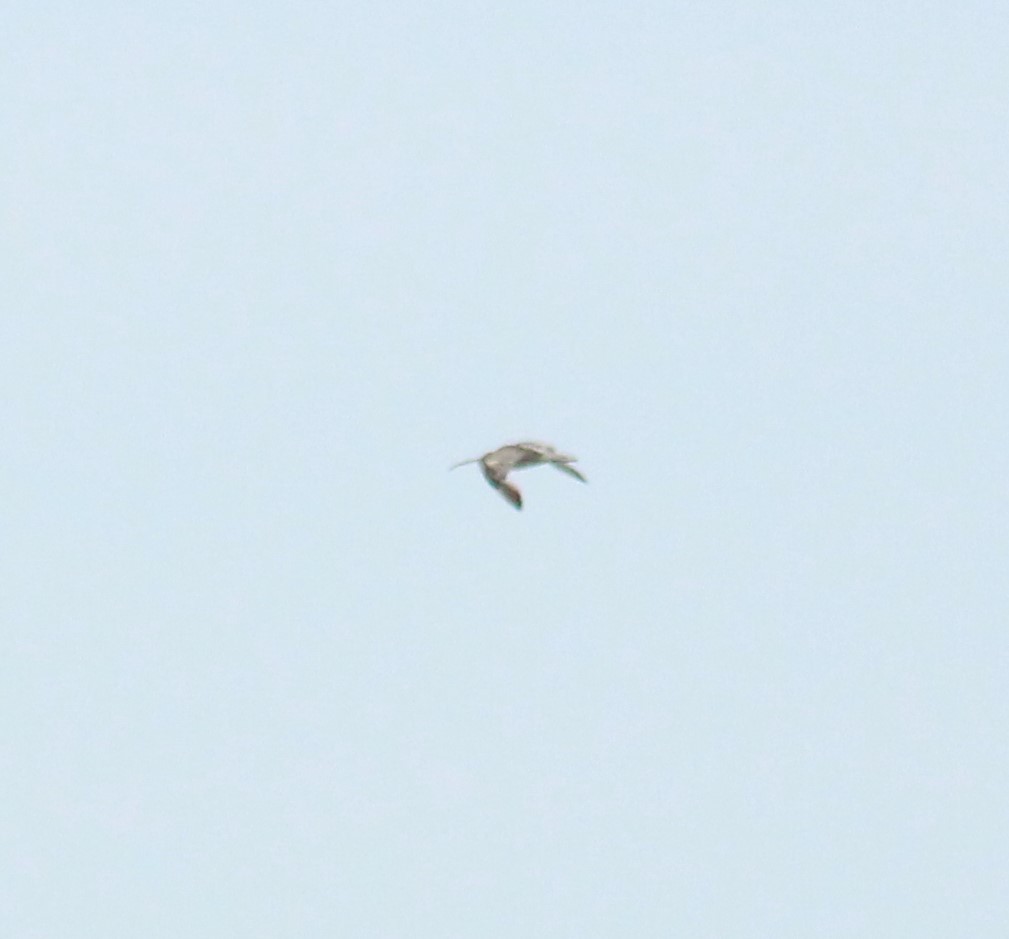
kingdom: Animalia
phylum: Chordata
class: Aves
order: Charadriiformes
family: Scolopacidae
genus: Numenius
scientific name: Numenius arquata
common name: Eurasian curlew
